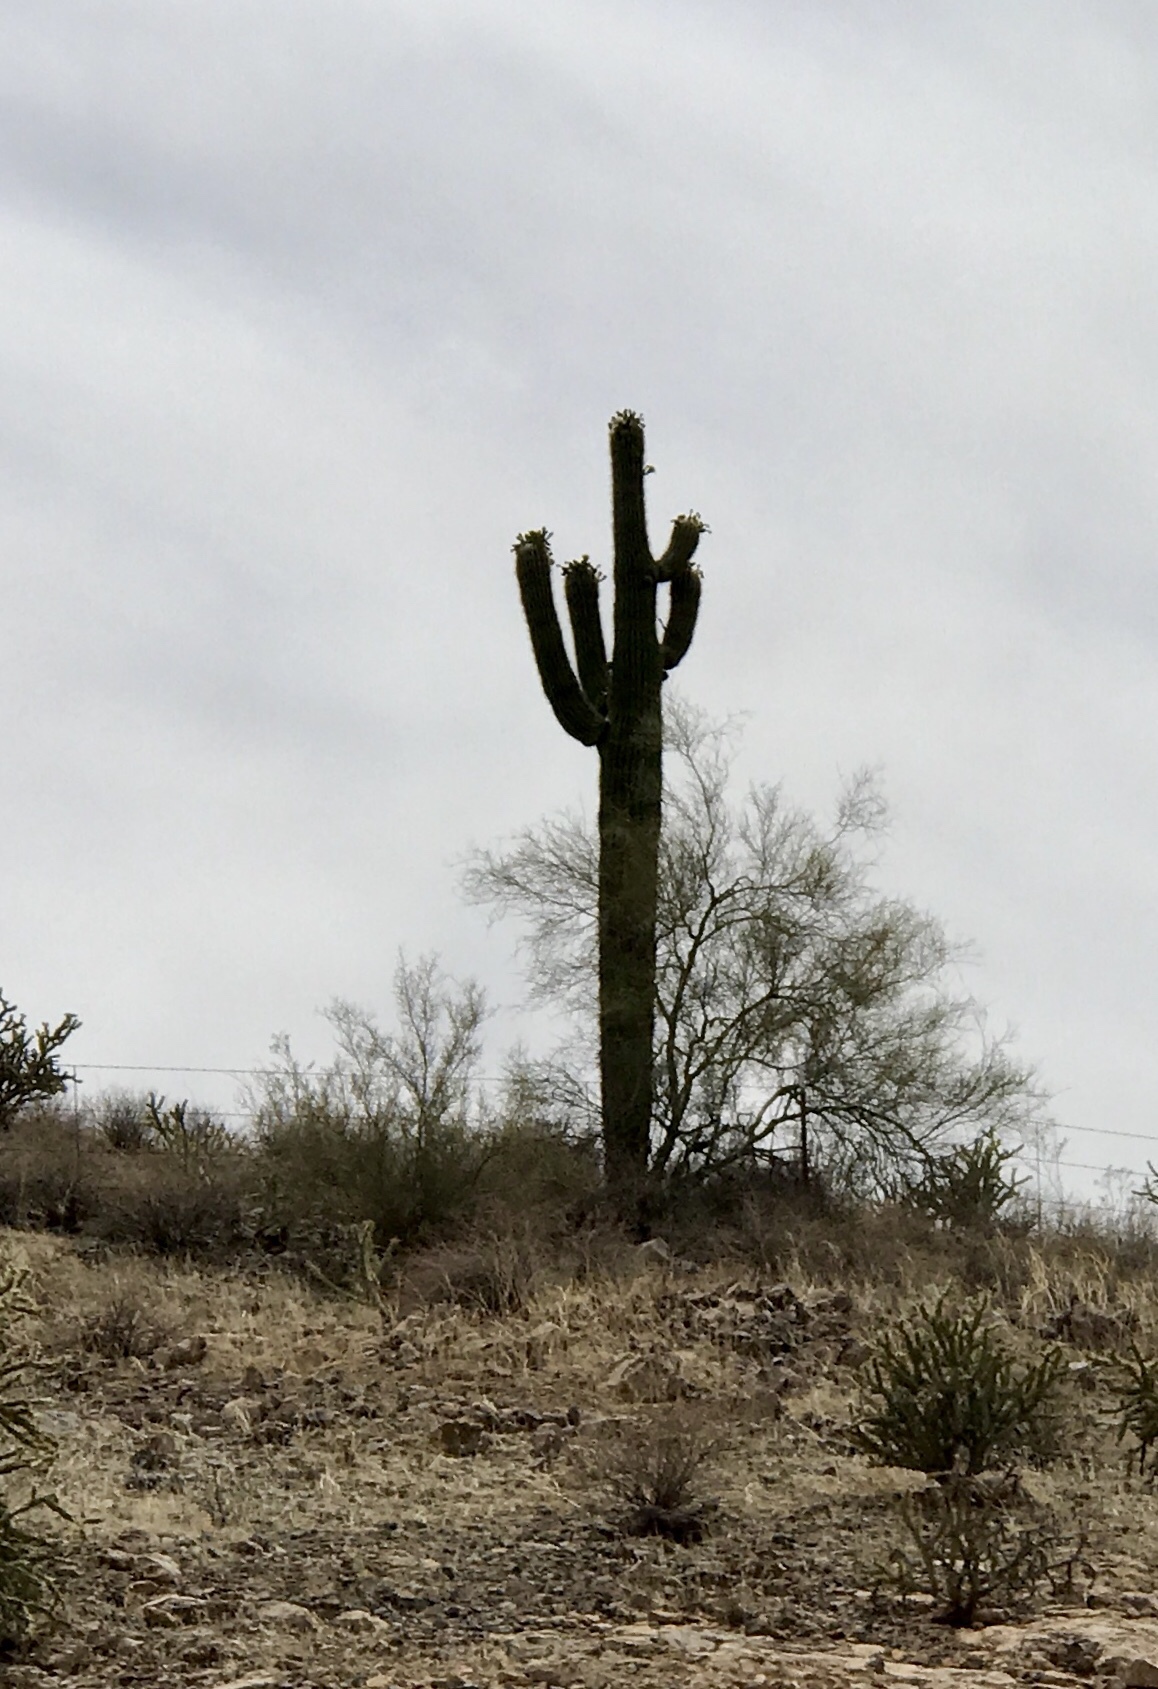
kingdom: Plantae
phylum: Tracheophyta
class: Magnoliopsida
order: Caryophyllales
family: Cactaceae
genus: Carnegiea
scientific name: Carnegiea gigantea
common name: Saguaro
